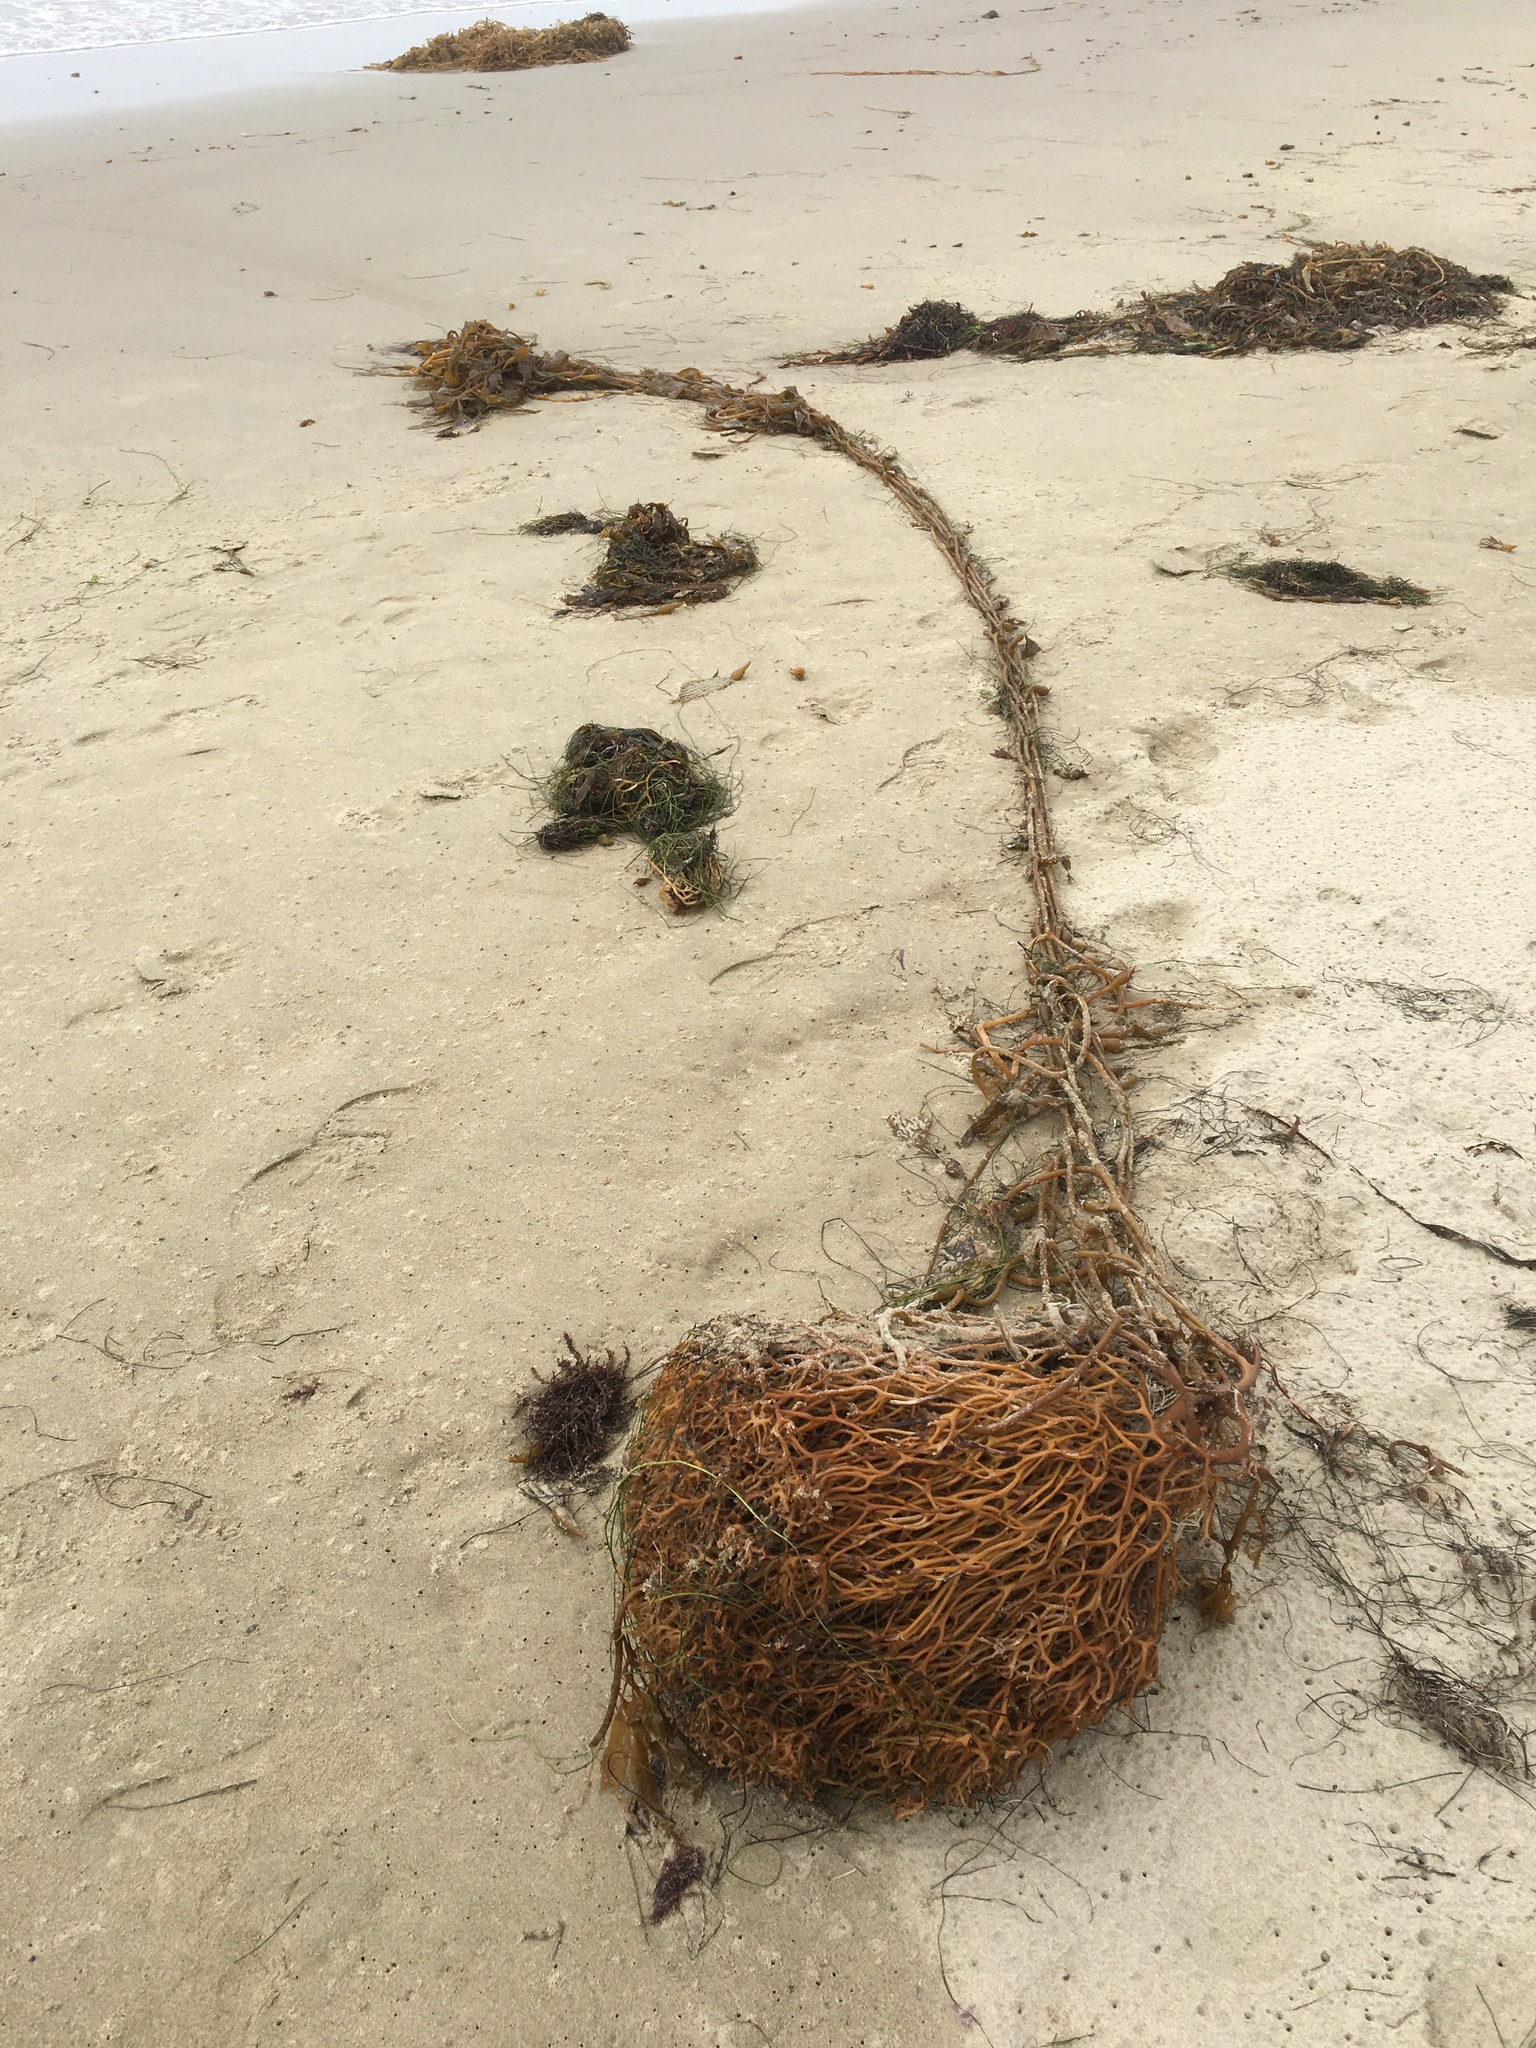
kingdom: Chromista
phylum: Ochrophyta
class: Phaeophyceae
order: Laminariales
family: Laminariaceae
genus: Macrocystis
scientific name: Macrocystis pyrifera
